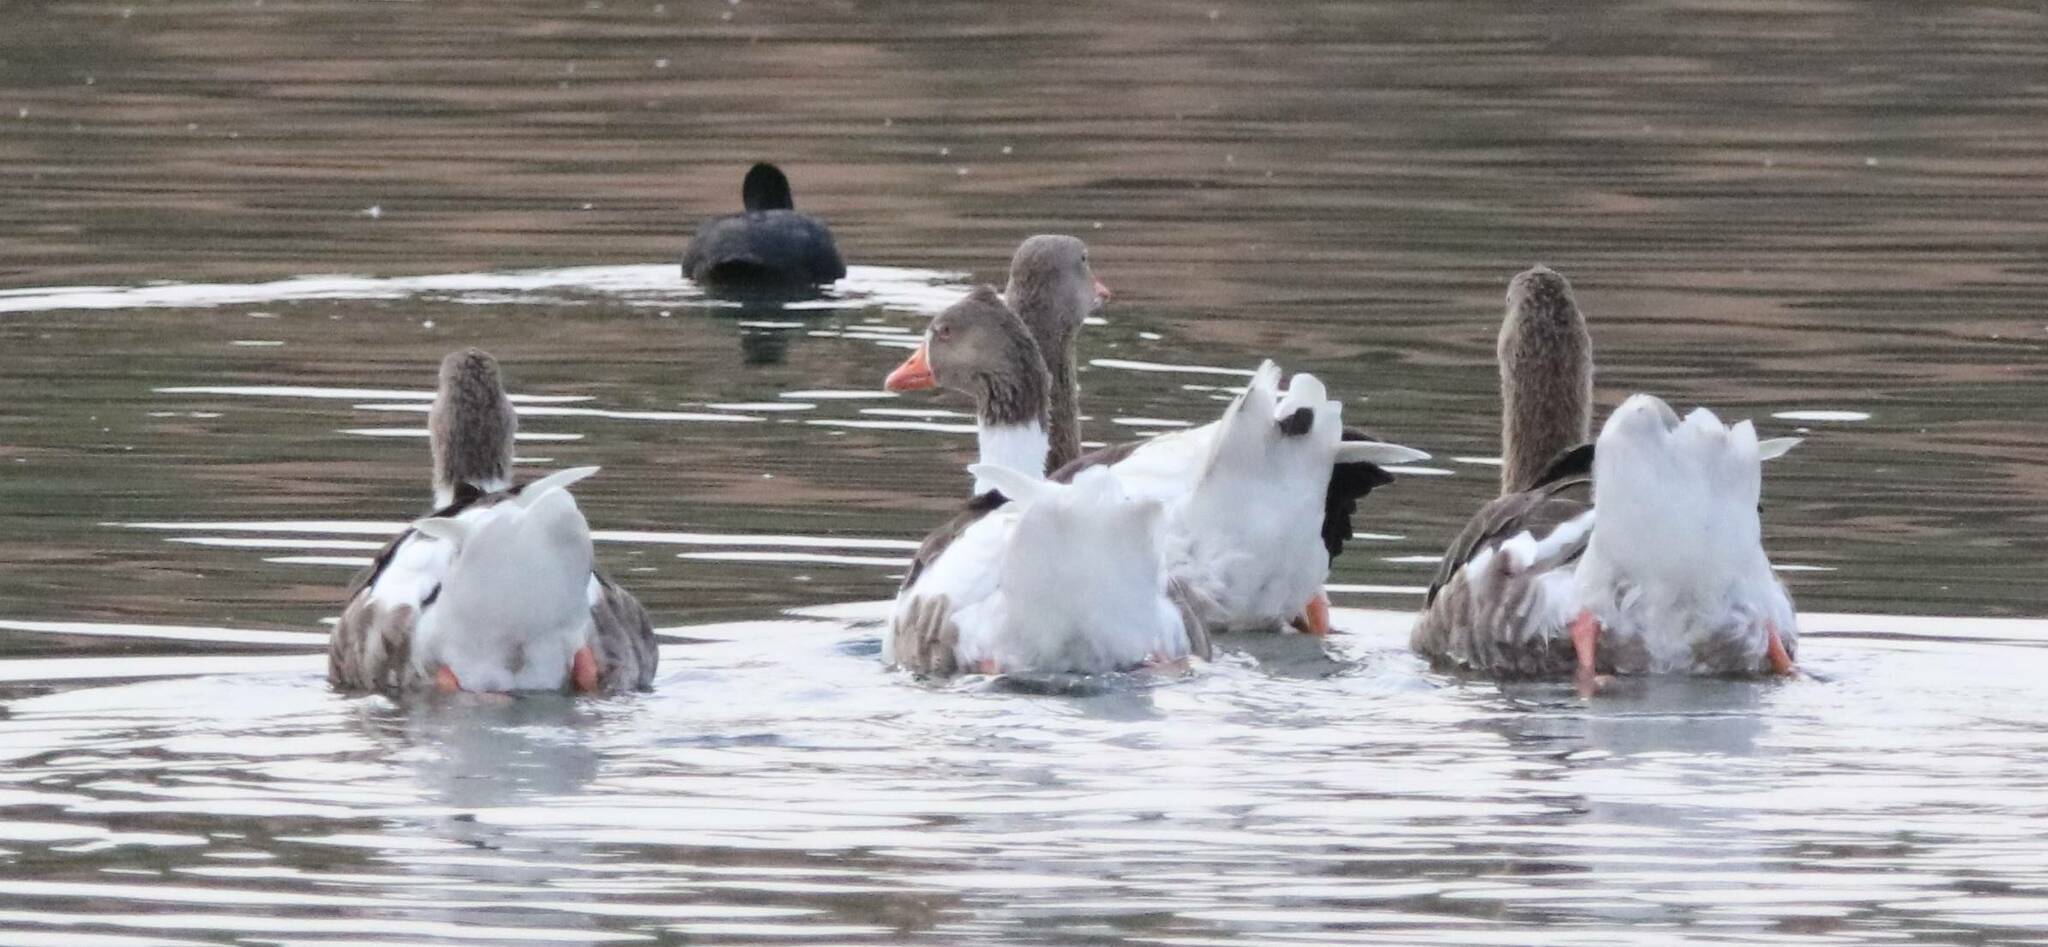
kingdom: Animalia
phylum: Chordata
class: Aves
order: Anseriformes
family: Anatidae
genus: Anser
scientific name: Anser anser
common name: Greylag goose
